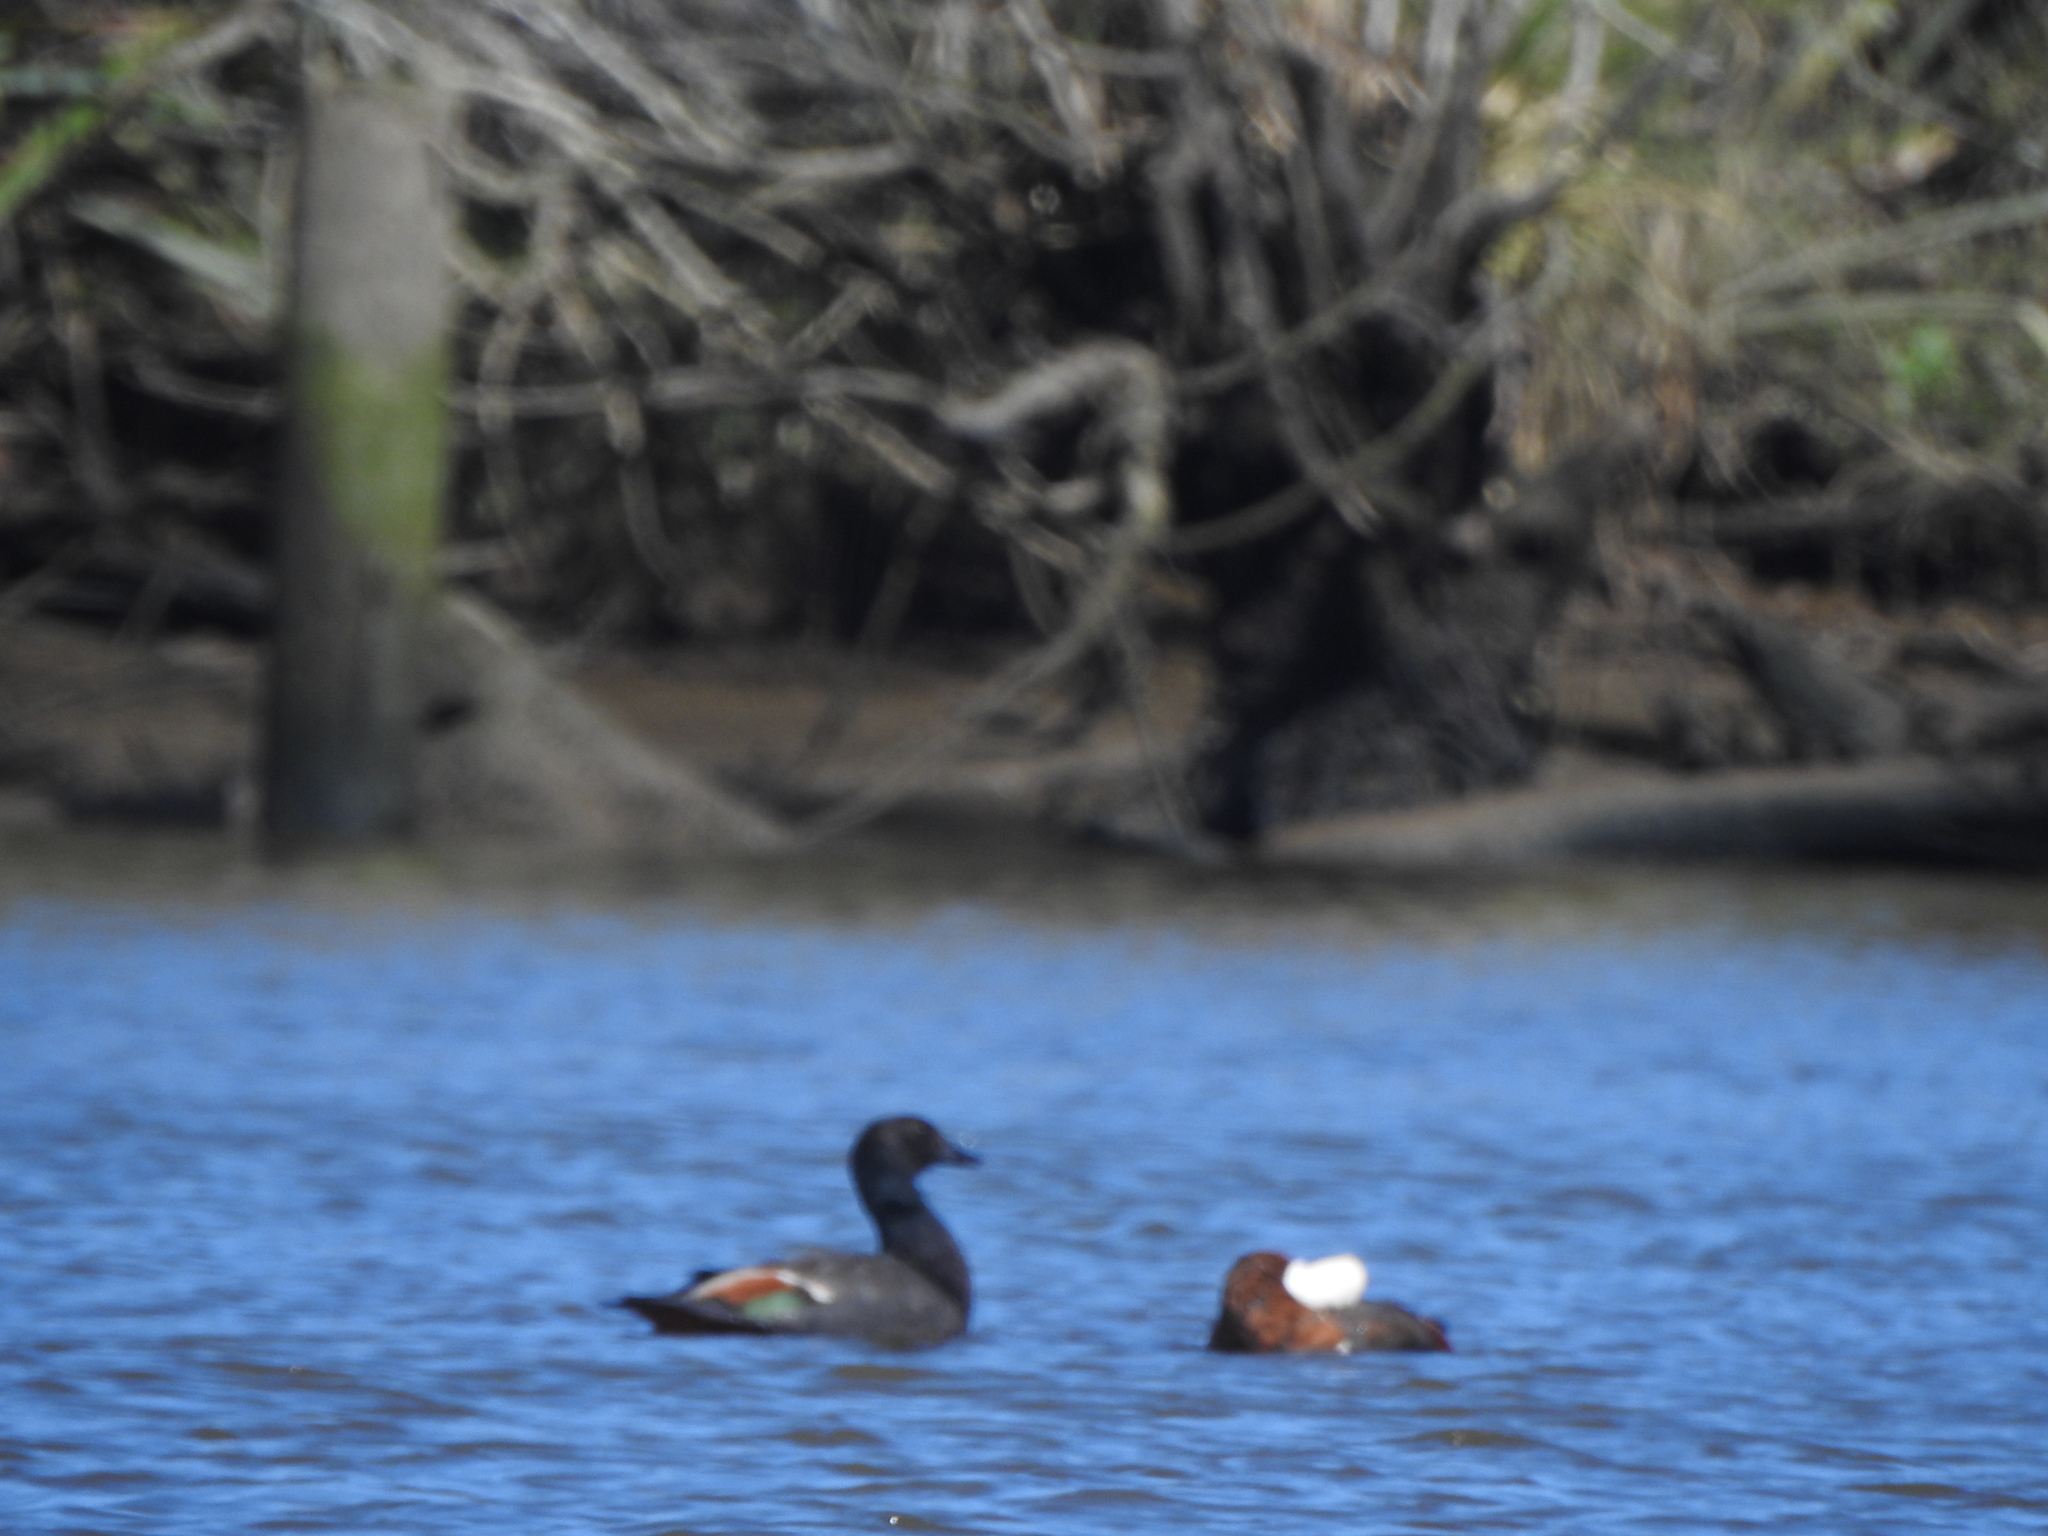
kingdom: Animalia
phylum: Chordata
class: Aves
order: Anseriformes
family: Anatidae
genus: Tadorna
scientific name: Tadorna variegata
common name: Paradise shelduck
